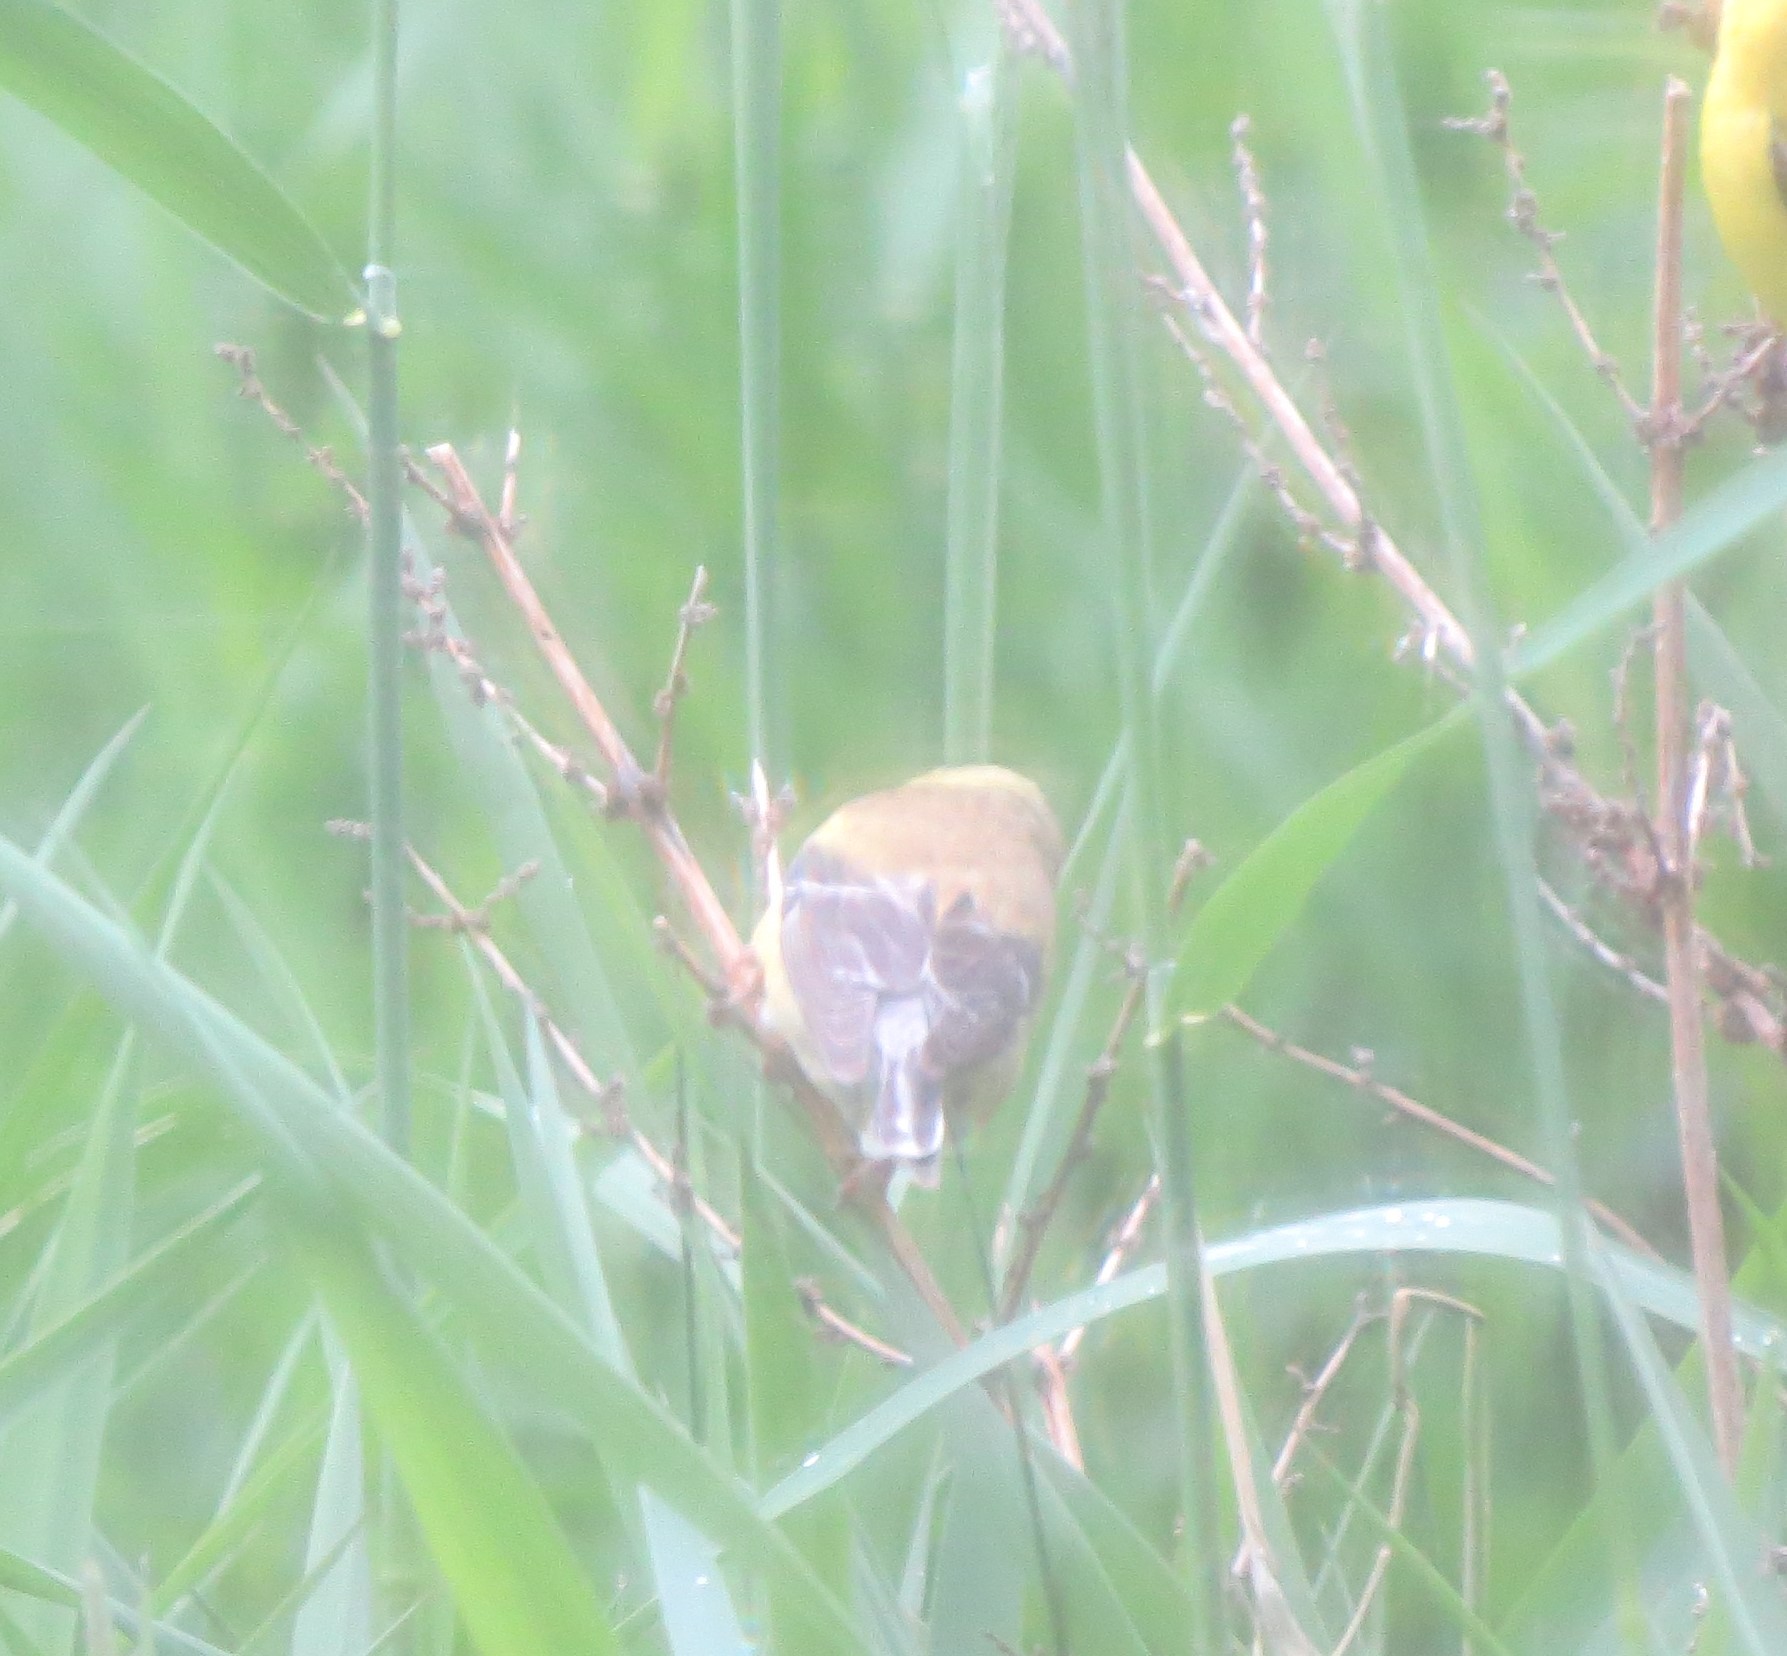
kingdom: Animalia
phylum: Chordata
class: Aves
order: Passeriformes
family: Fringillidae
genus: Spinus
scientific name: Spinus tristis
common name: American goldfinch
